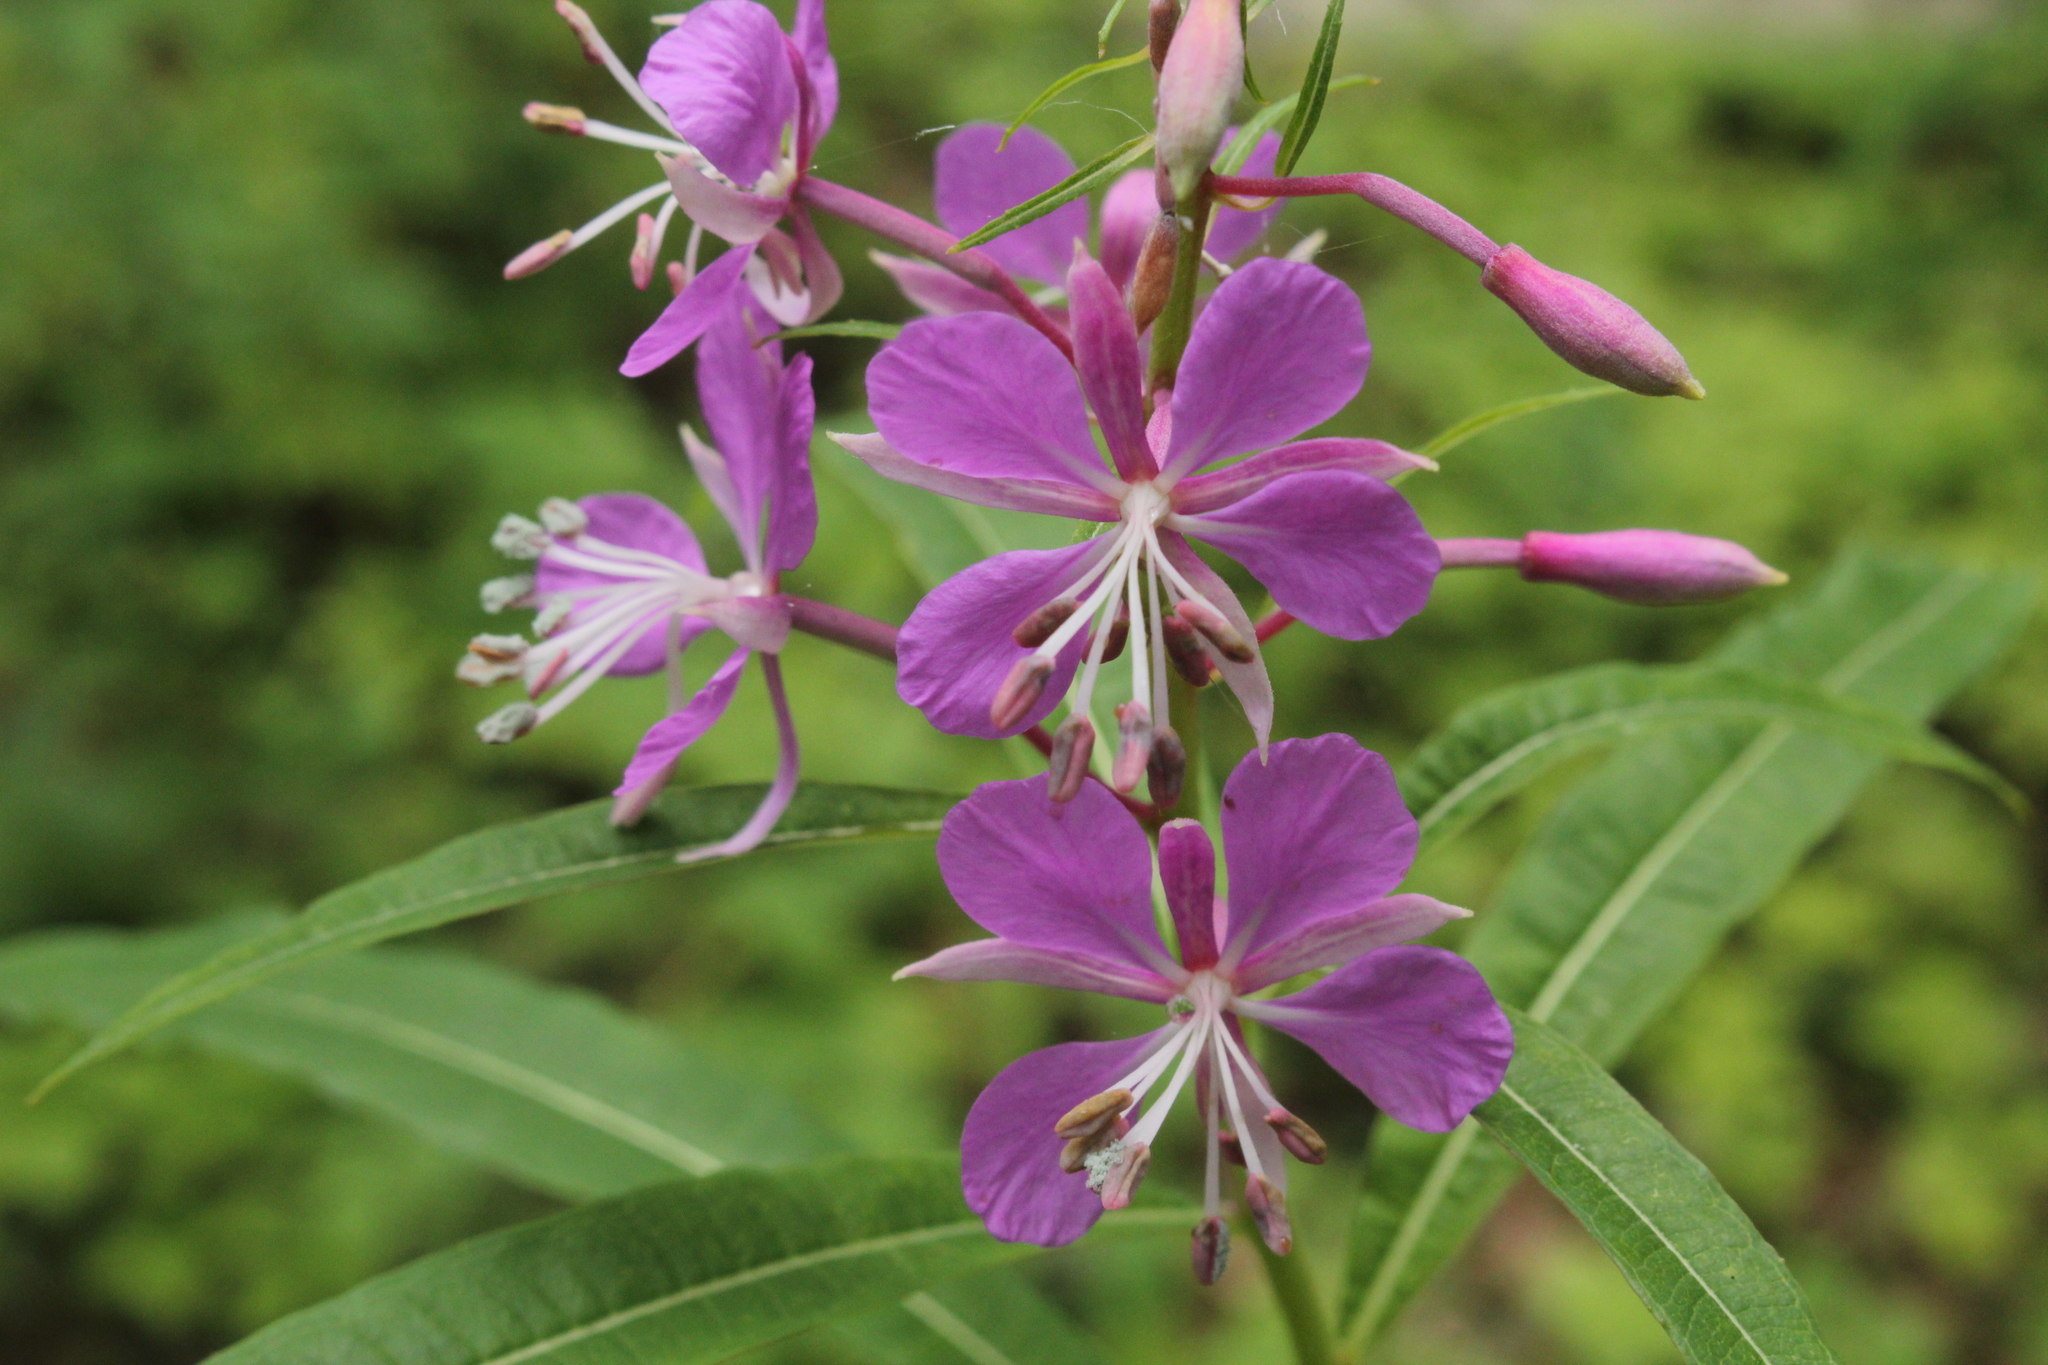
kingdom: Plantae
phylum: Tracheophyta
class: Magnoliopsida
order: Myrtales
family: Onagraceae
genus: Chamaenerion
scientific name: Chamaenerion angustifolium
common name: Fireweed
